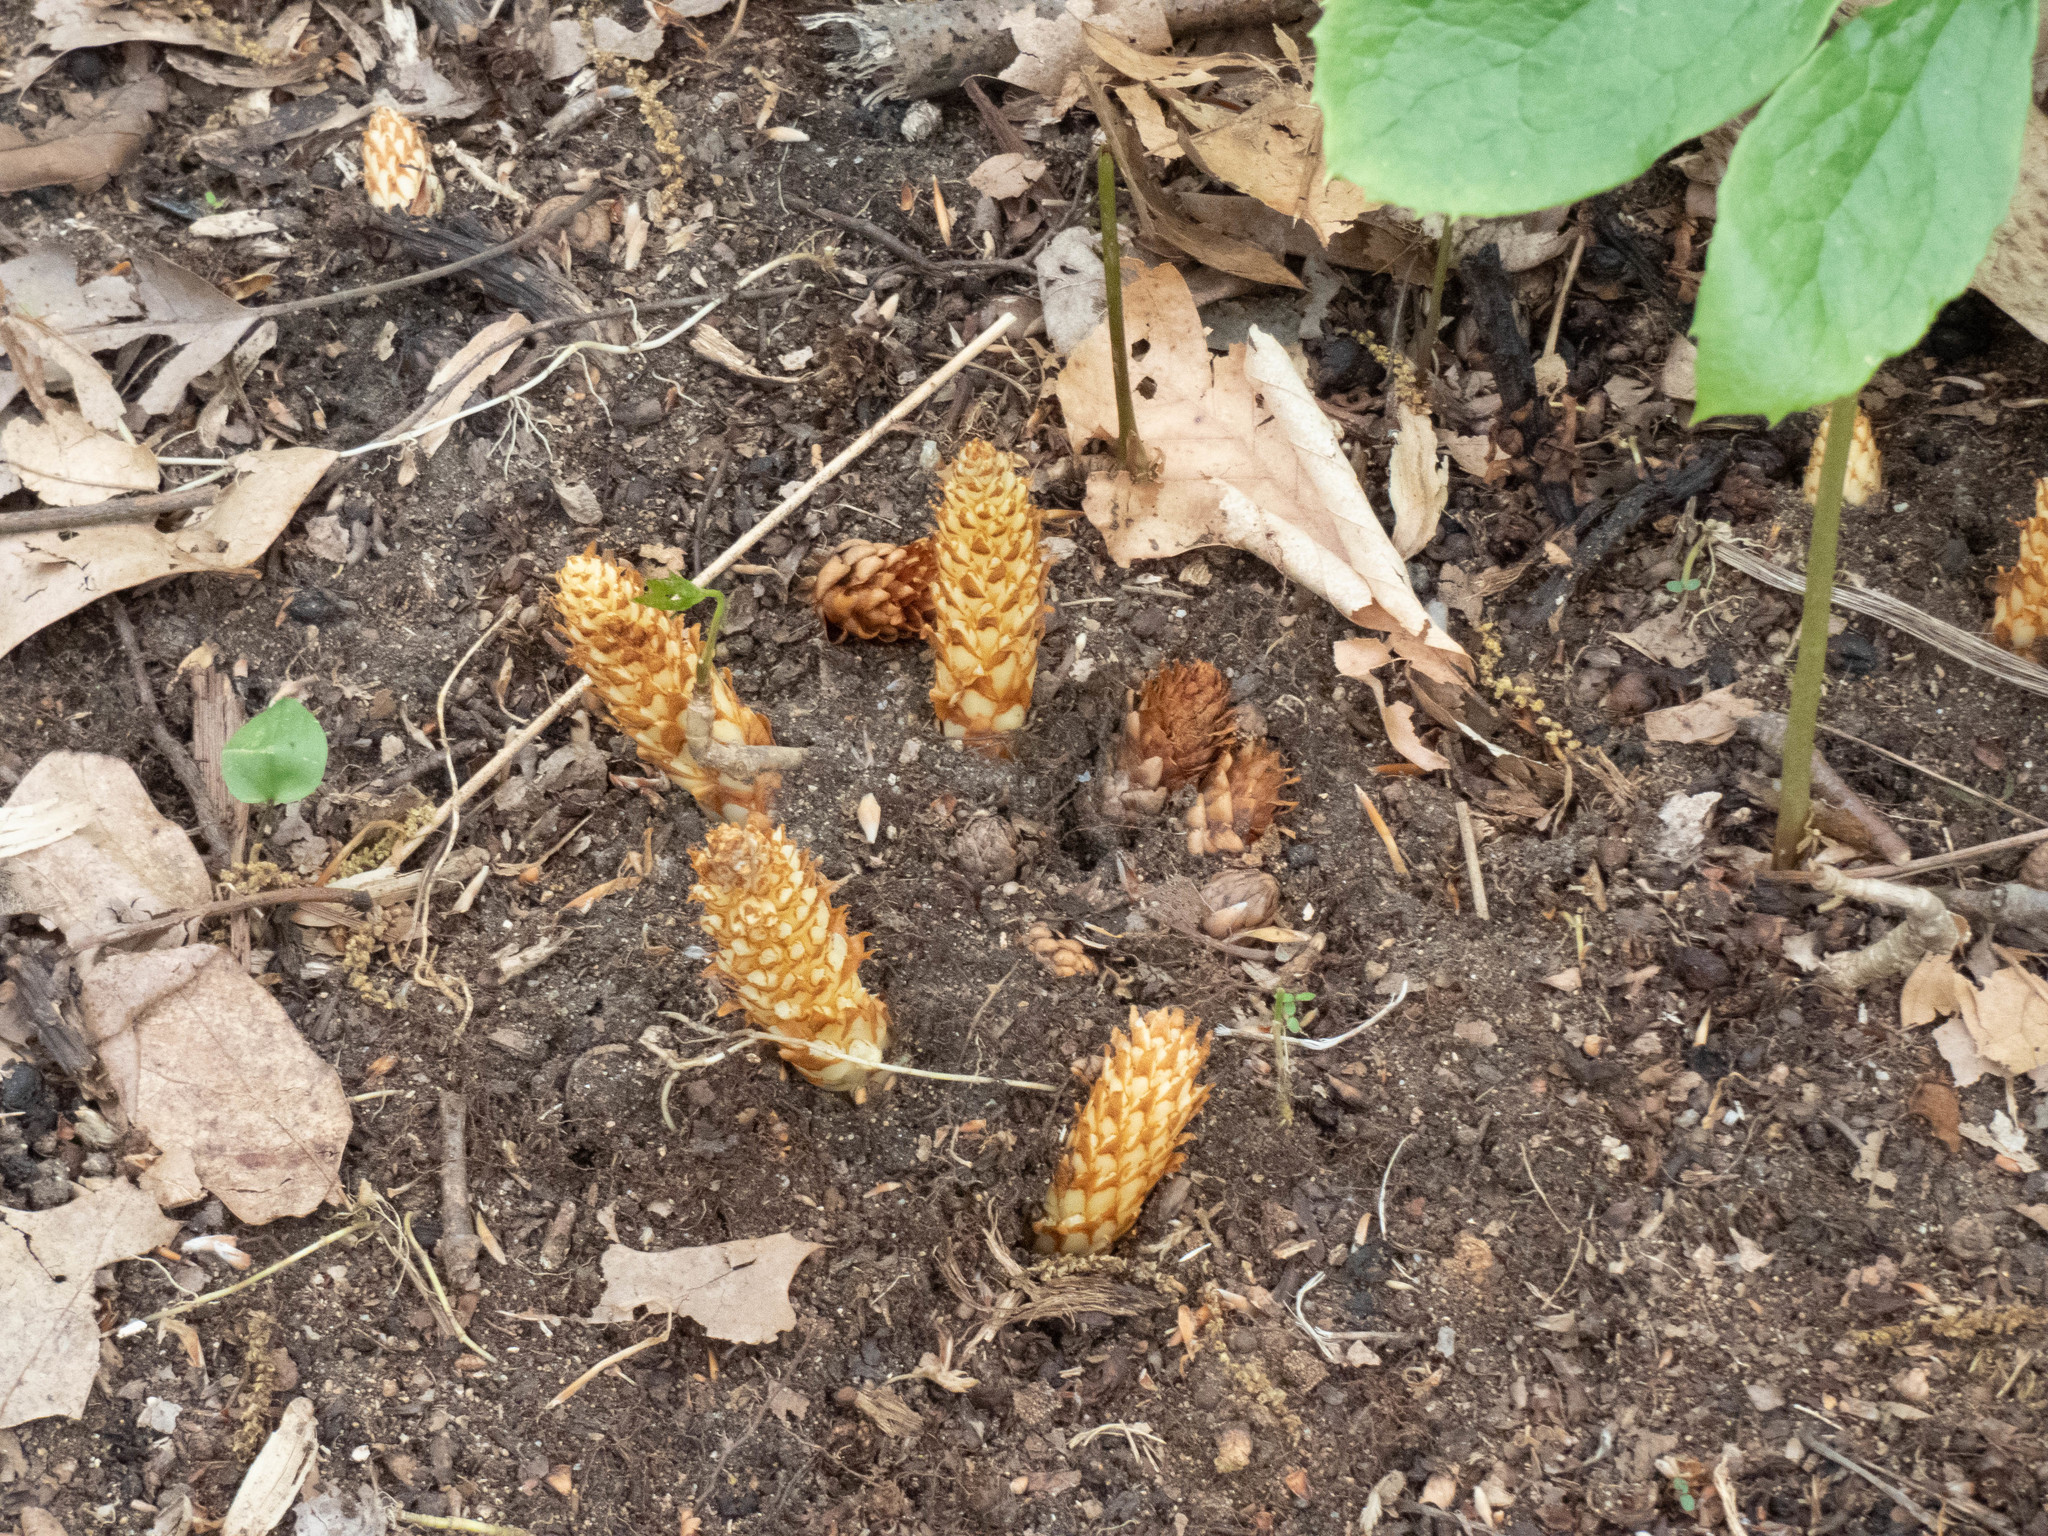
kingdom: Plantae
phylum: Tracheophyta
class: Magnoliopsida
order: Lamiales
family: Orobanchaceae
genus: Conopholis
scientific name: Conopholis americana
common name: American cancer-root
